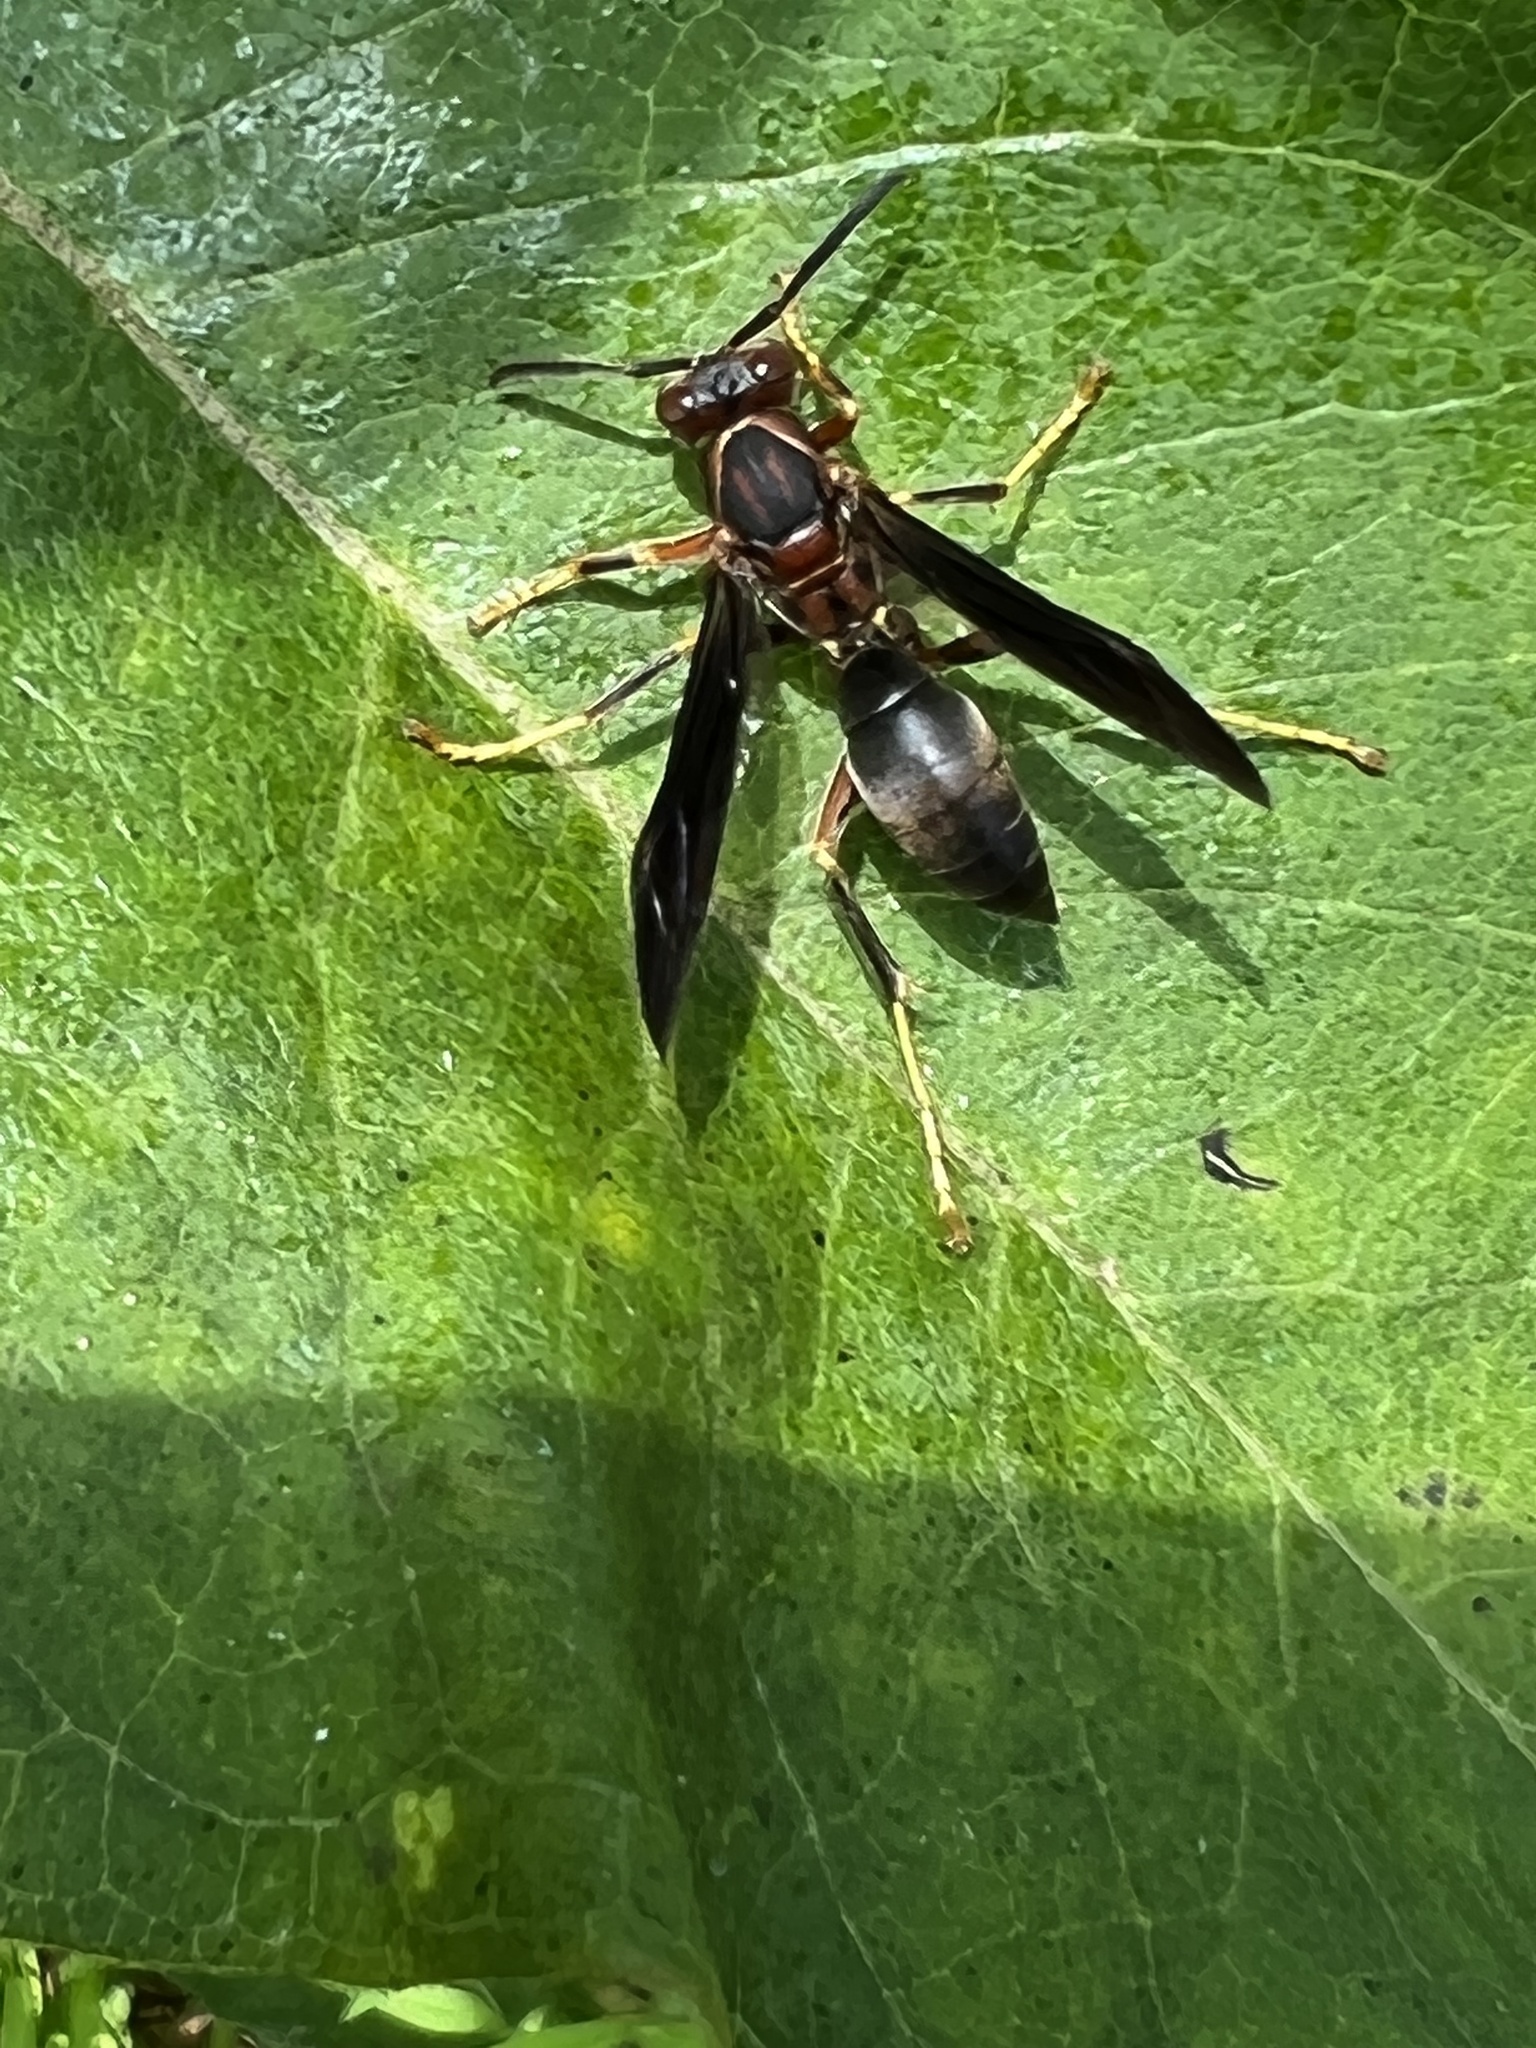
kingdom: Animalia
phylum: Arthropoda
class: Insecta
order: Hymenoptera
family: Eumenidae
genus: Polistes
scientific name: Polistes metricus
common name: Metric paper wasp
